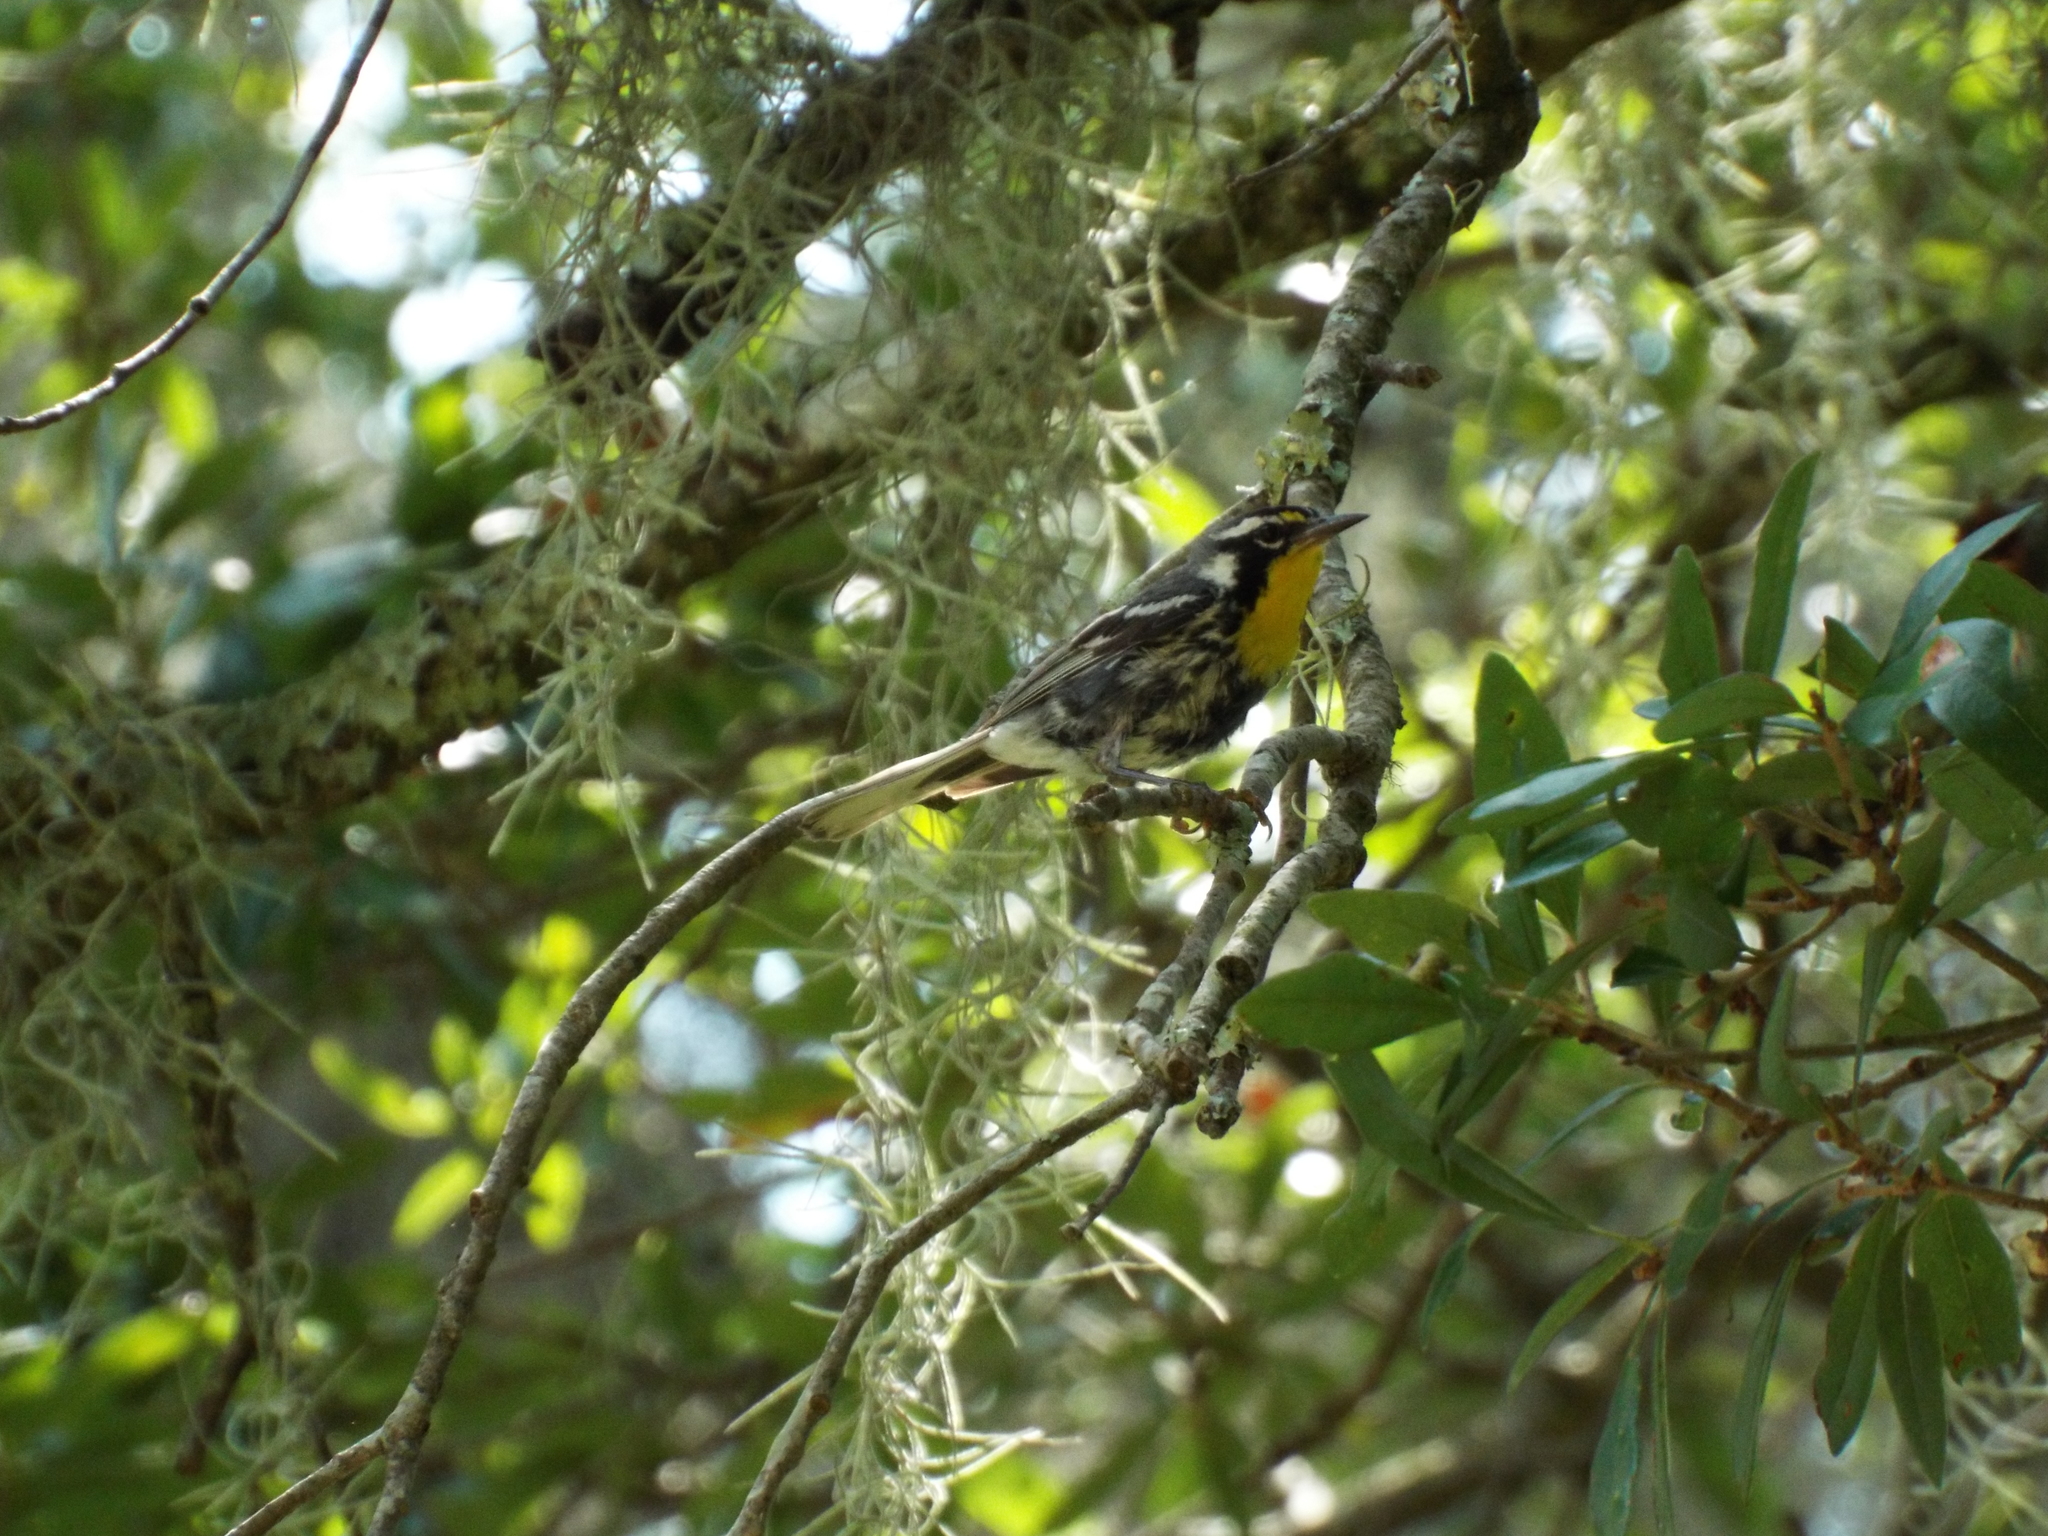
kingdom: Animalia
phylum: Chordata
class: Aves
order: Passeriformes
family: Parulidae
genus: Setophaga
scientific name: Setophaga dominica
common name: Yellow-throated warbler
